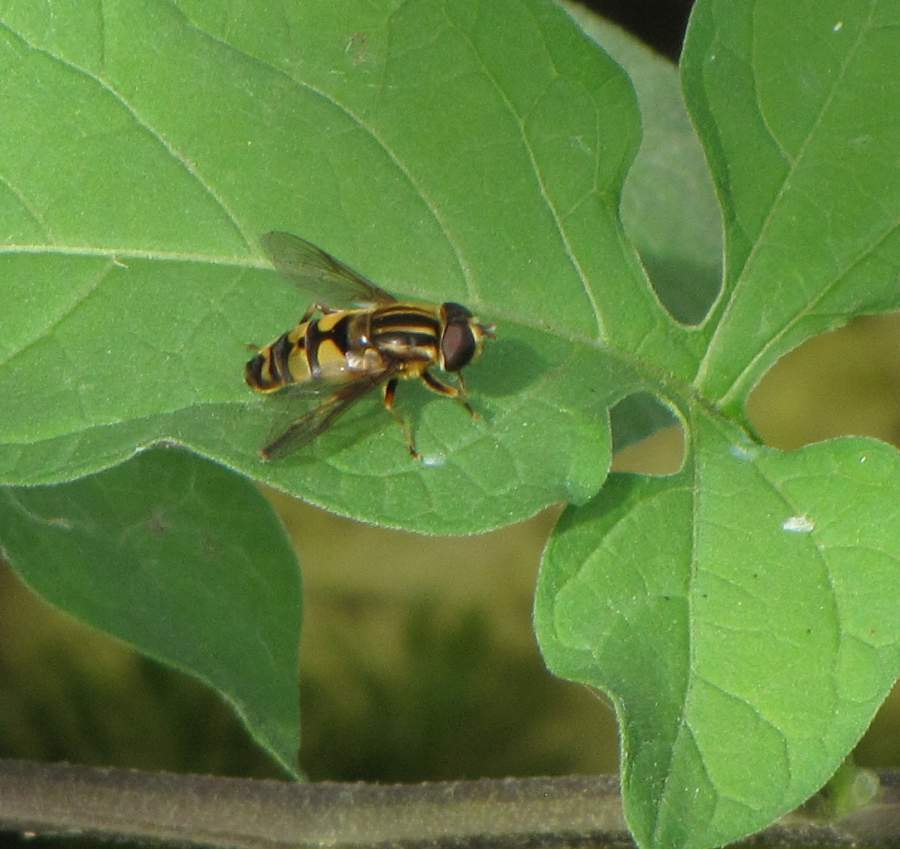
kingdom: Animalia
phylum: Arthropoda
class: Insecta
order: Diptera
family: Syrphidae
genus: Helophilus
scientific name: Helophilus fasciatus
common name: Narrow-headed marsh fly
